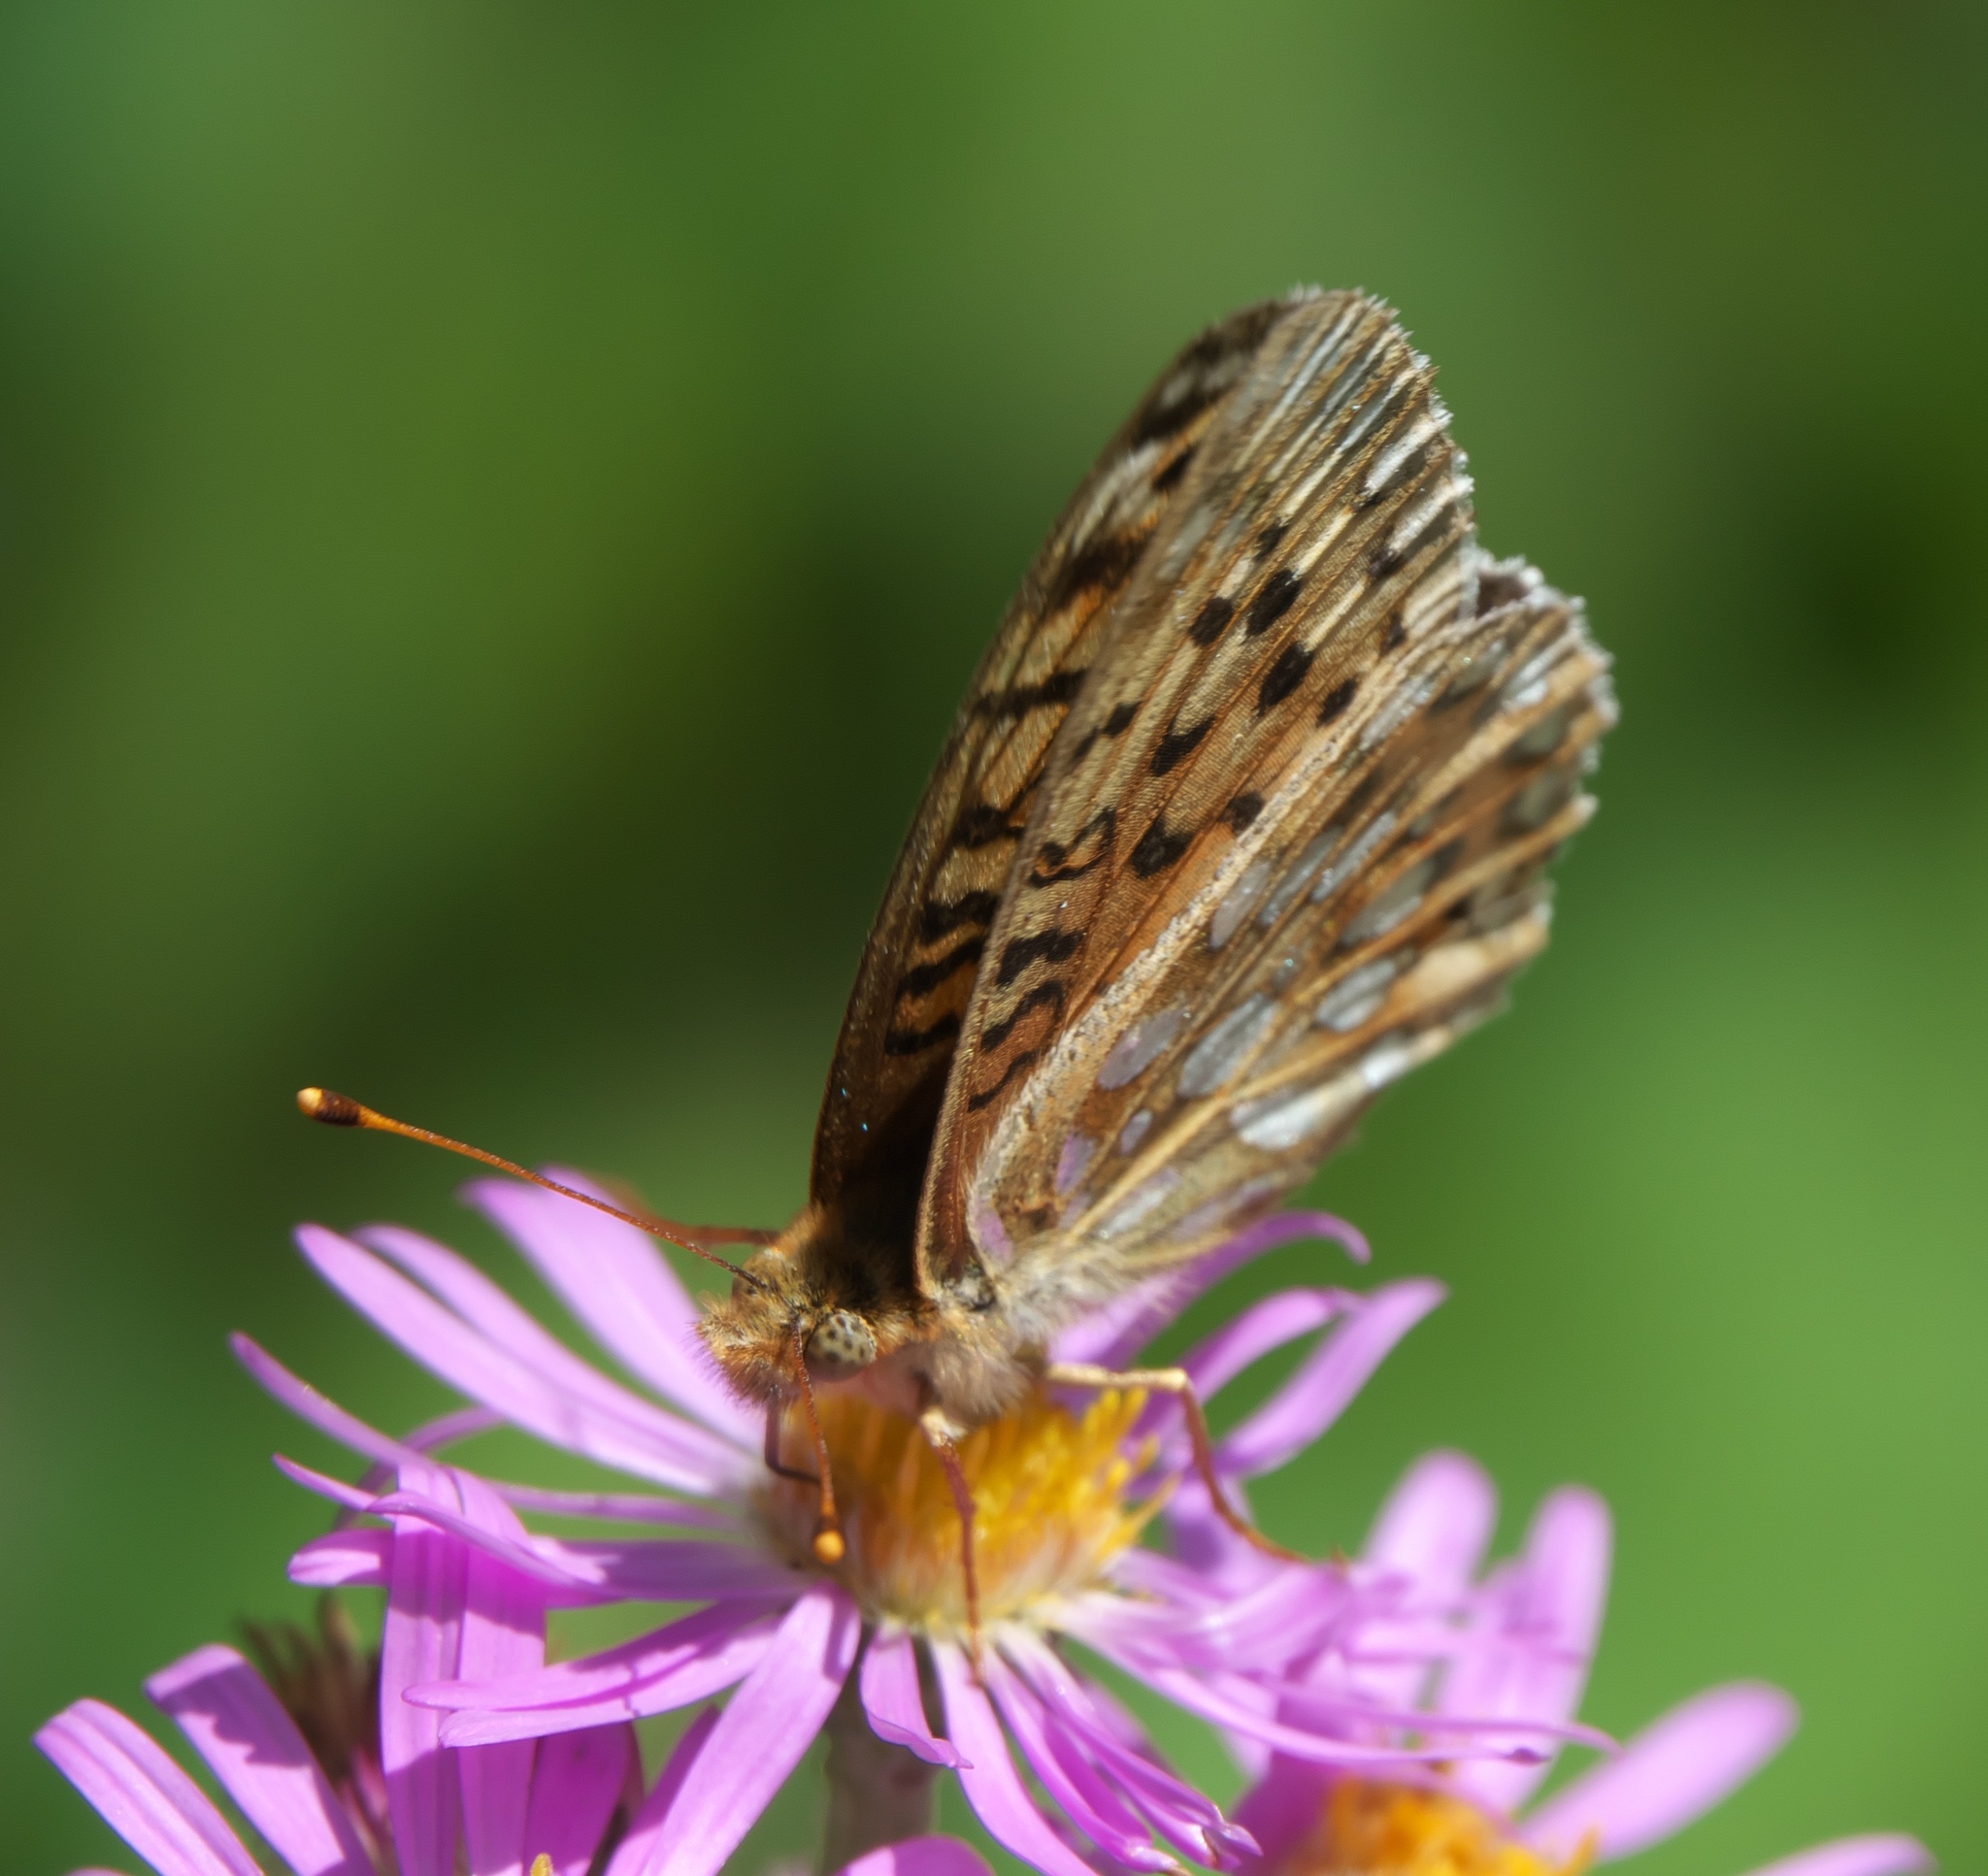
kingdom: Animalia
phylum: Arthropoda
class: Insecta
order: Lepidoptera
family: Nymphalidae
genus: Speyeria
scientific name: Speyeria mormonia
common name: Mormon fritillary
